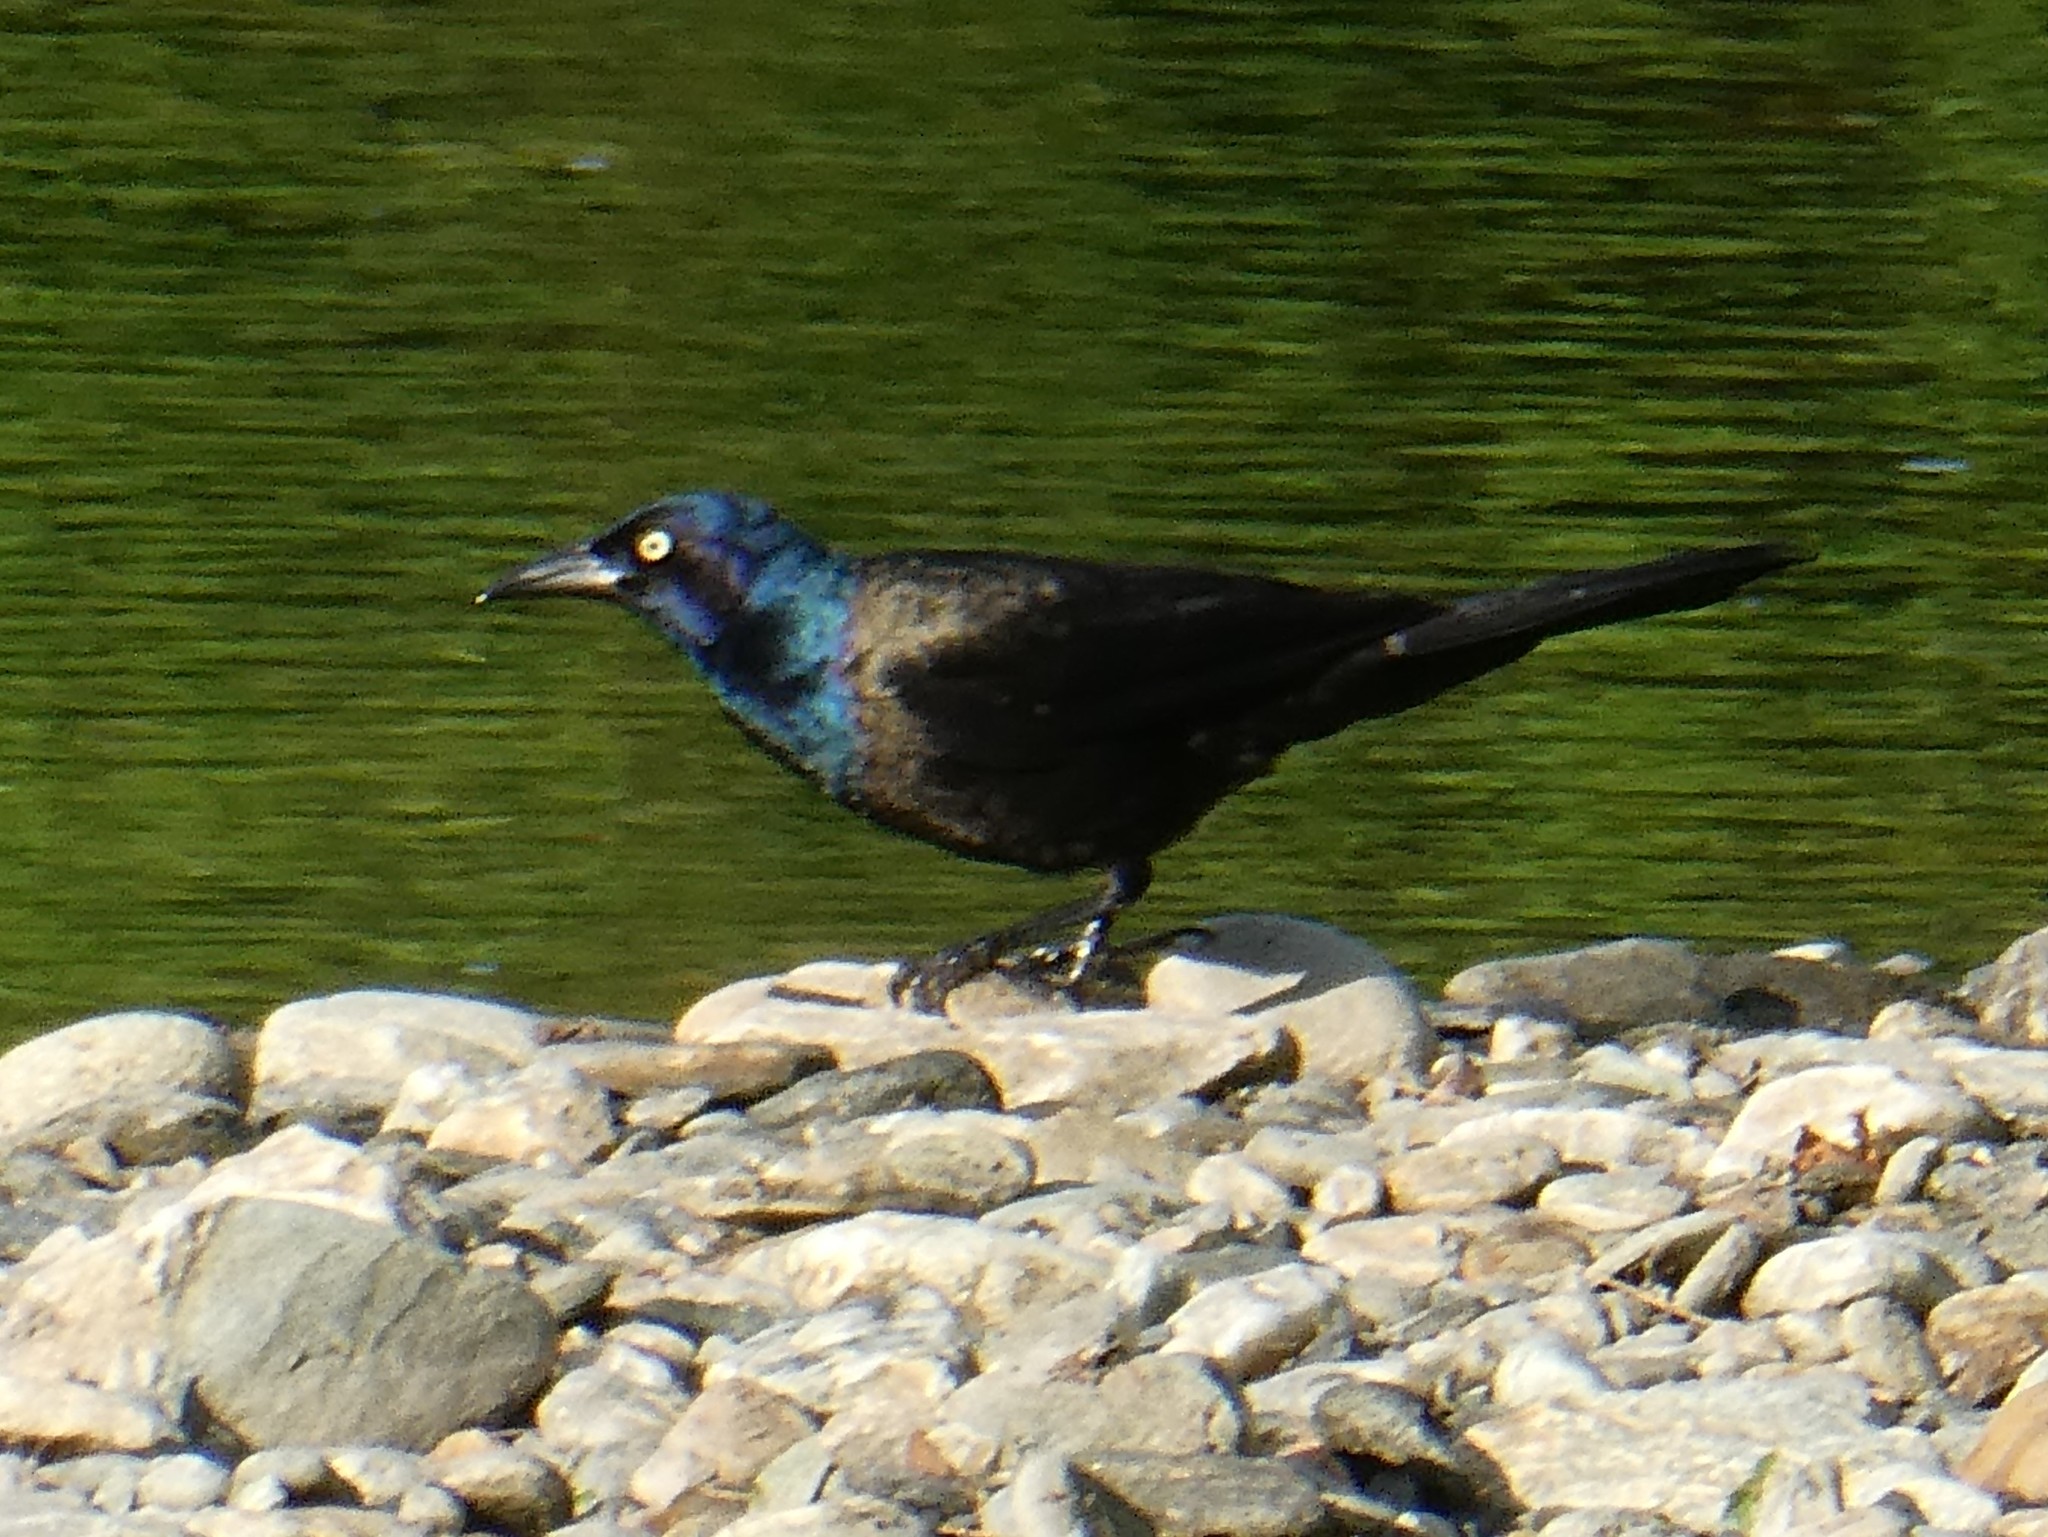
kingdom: Animalia
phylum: Chordata
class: Aves
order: Passeriformes
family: Icteridae
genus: Quiscalus
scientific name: Quiscalus quiscula
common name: Common grackle
